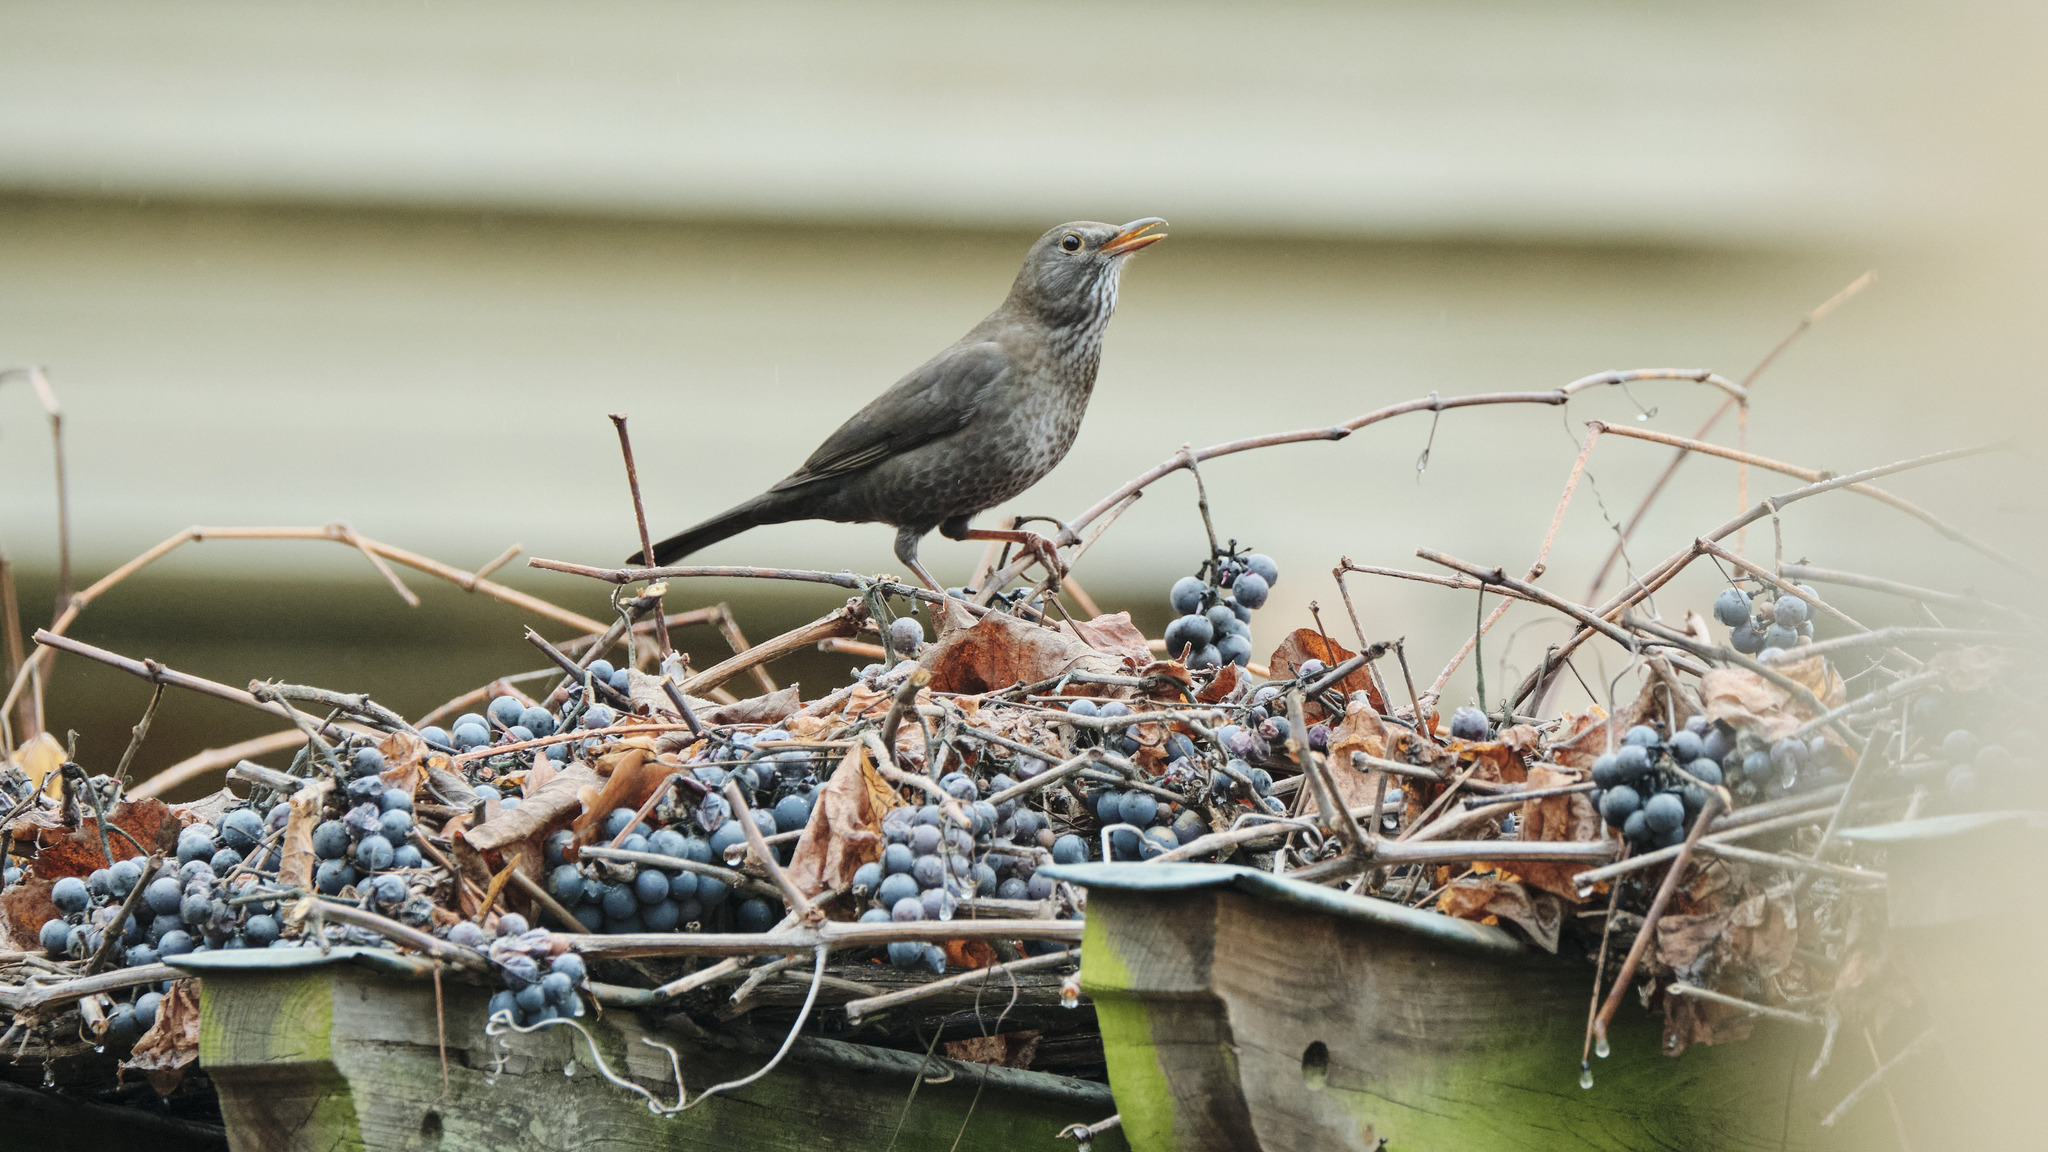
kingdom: Animalia
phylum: Chordata
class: Aves
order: Passeriformes
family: Turdidae
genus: Turdus
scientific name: Turdus merula
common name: Common blackbird
